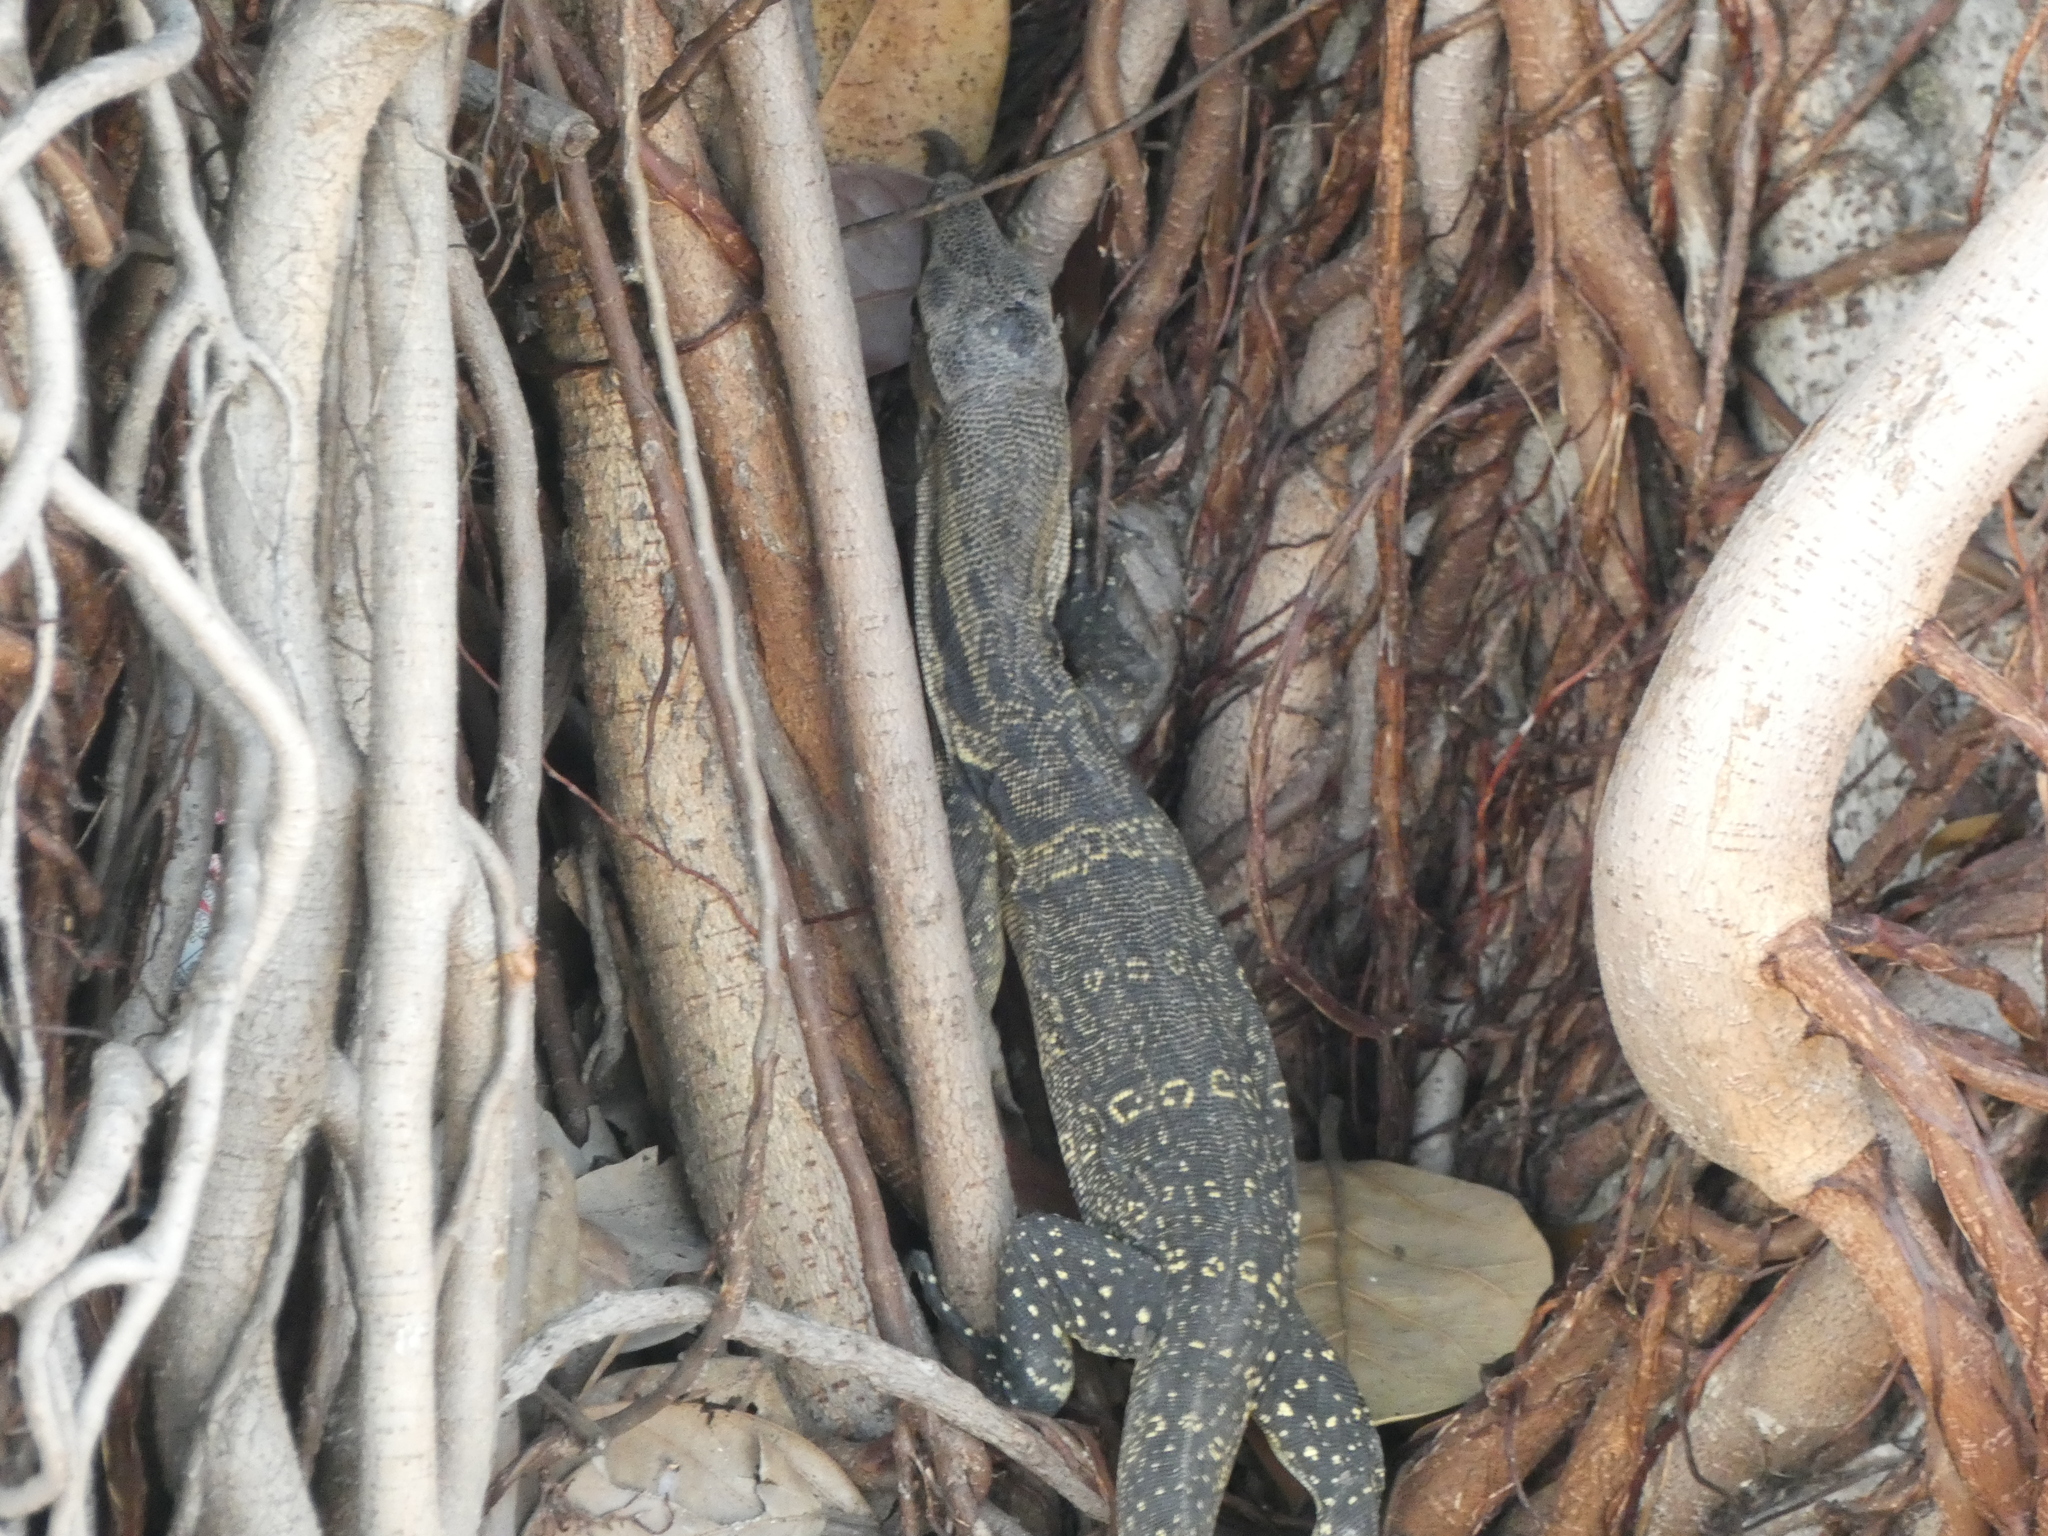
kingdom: Animalia
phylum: Chordata
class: Squamata
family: Varanidae
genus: Varanus
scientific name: Varanus salvator
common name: Common water monitor
